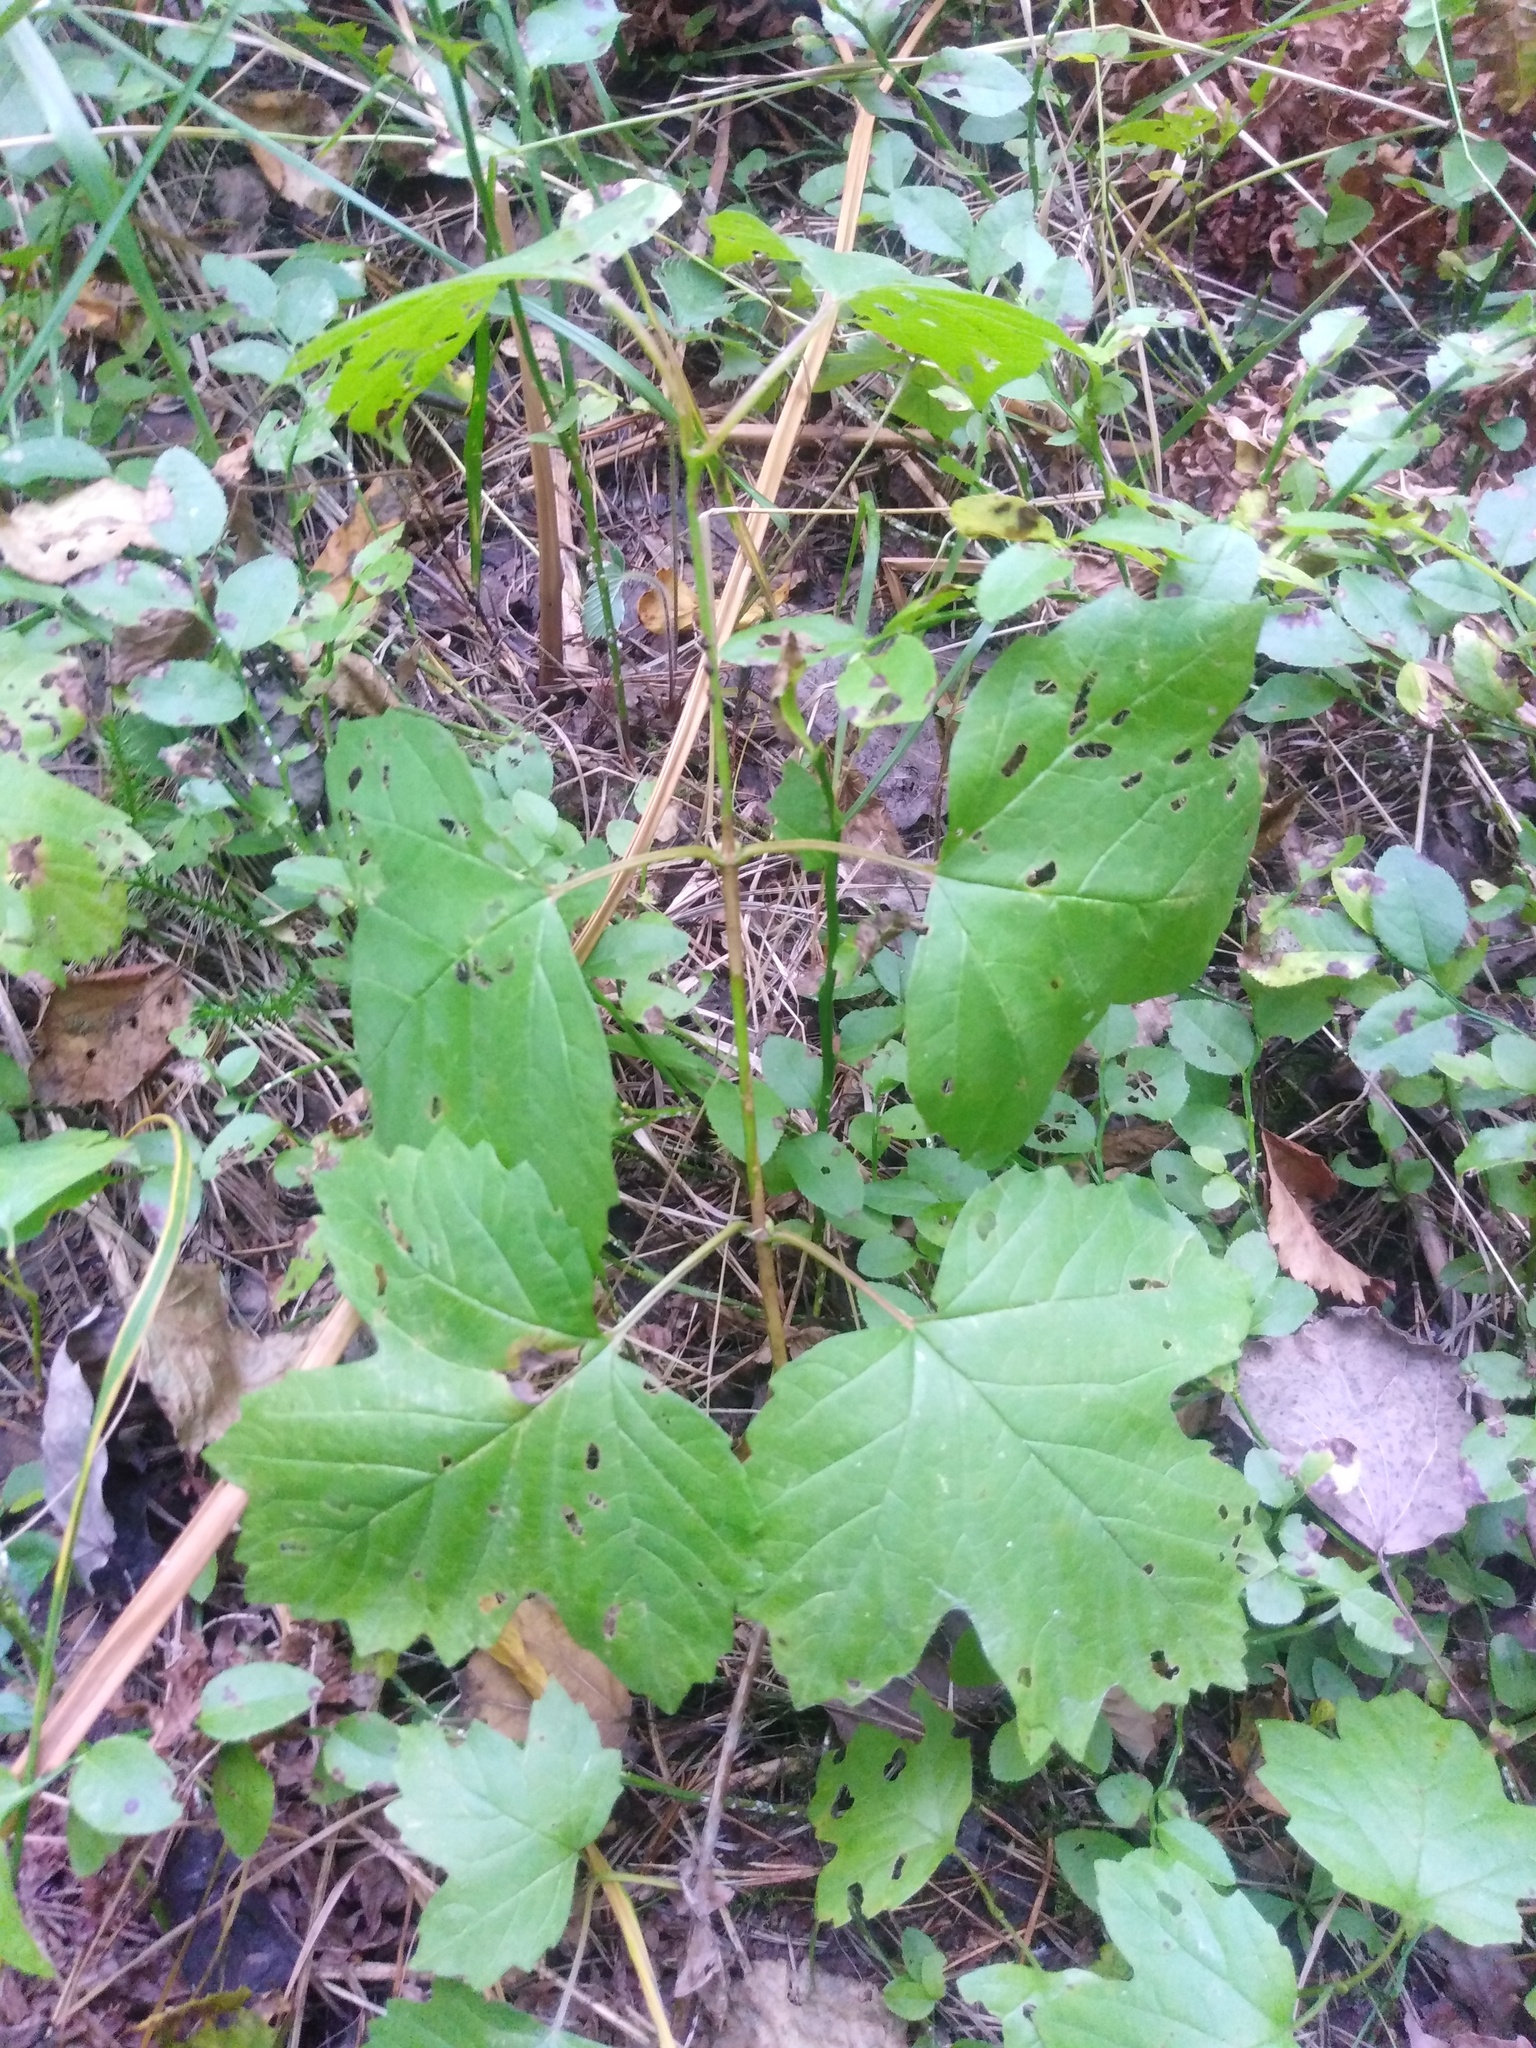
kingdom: Plantae
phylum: Tracheophyta
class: Magnoliopsida
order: Dipsacales
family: Viburnaceae
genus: Viburnum
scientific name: Viburnum opulus
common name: Guelder-rose
